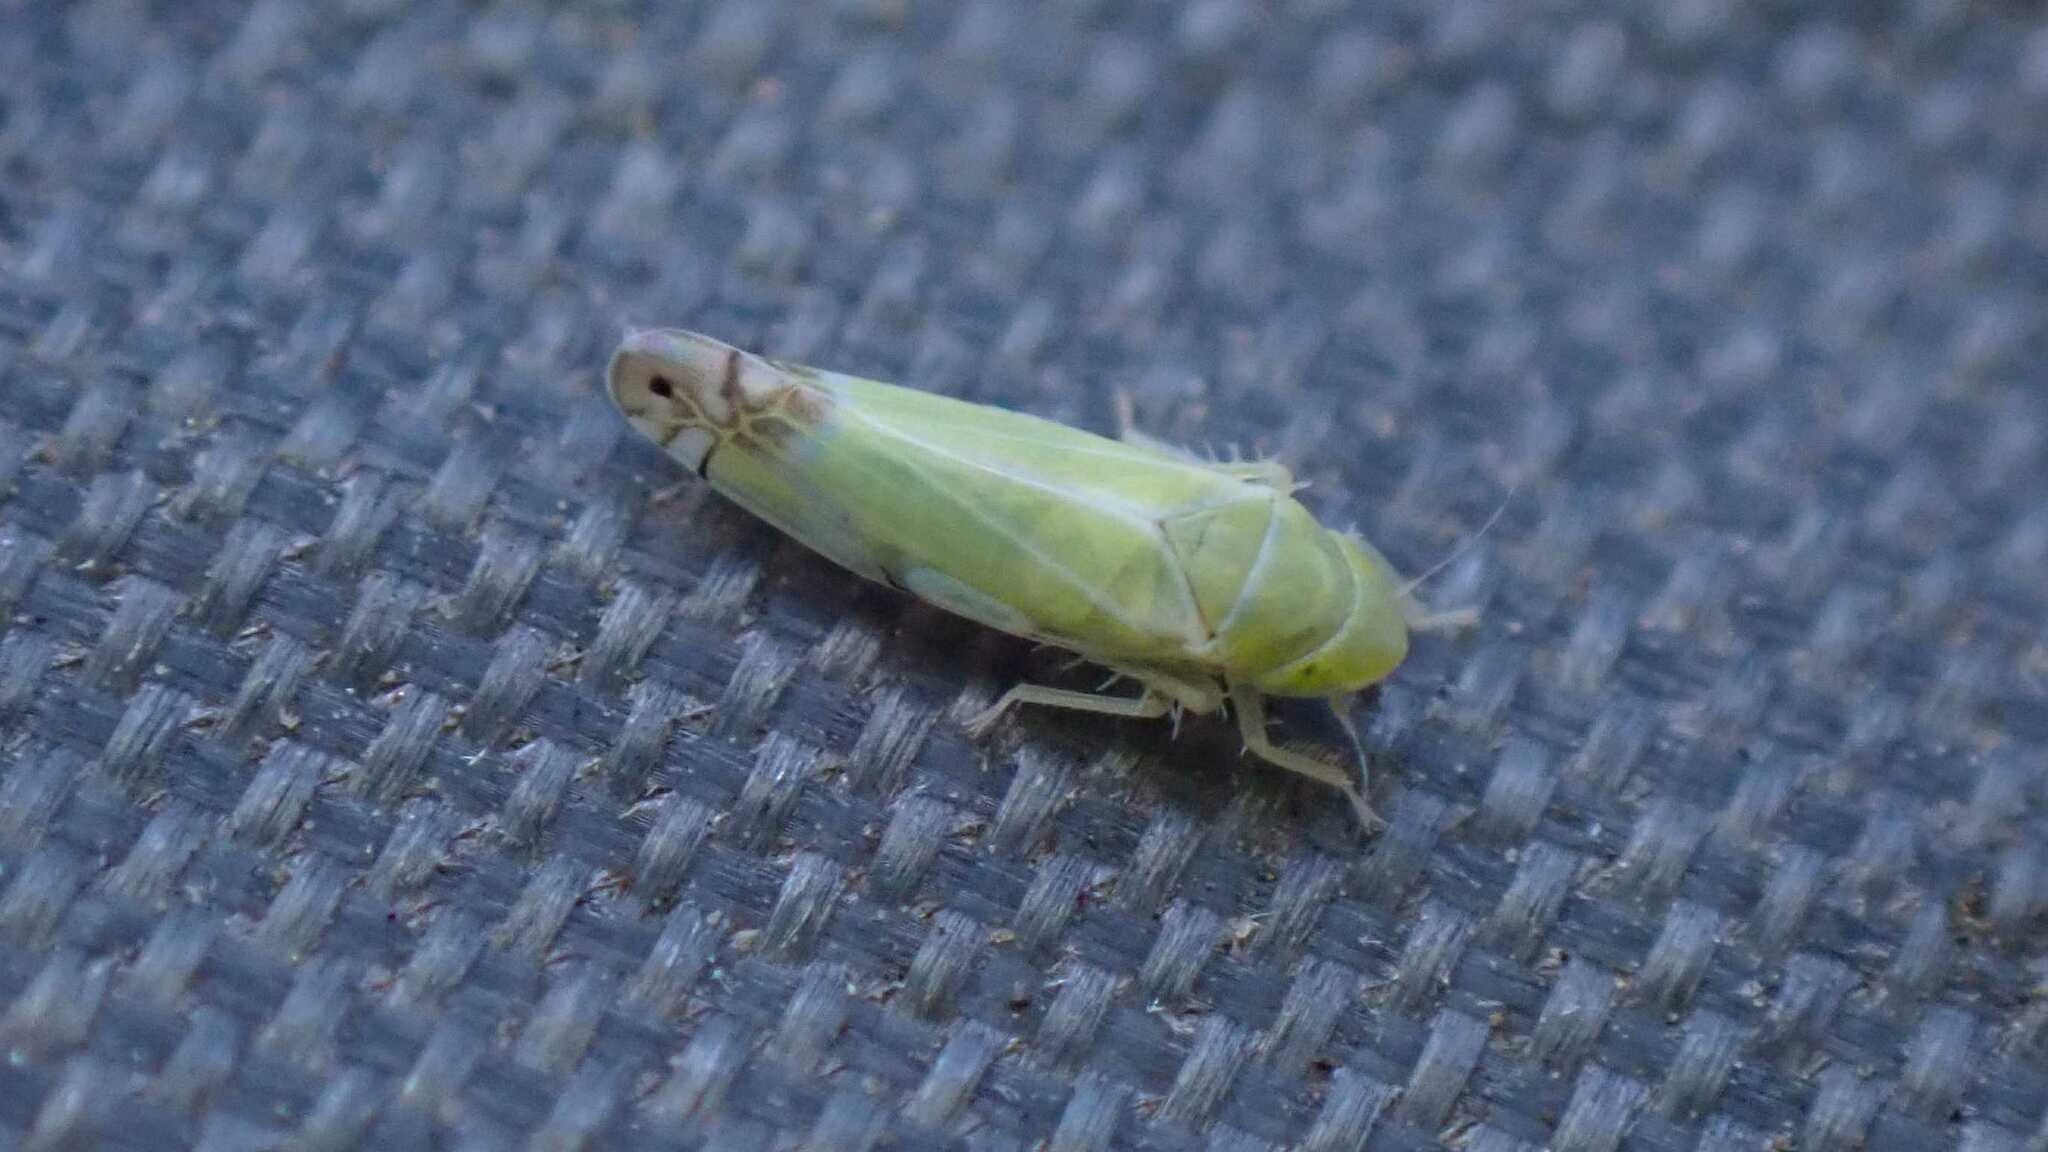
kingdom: Animalia
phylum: Arthropoda
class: Insecta
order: Hemiptera
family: Cicadellidae
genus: Zyginella
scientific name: Zyginella pulchra
